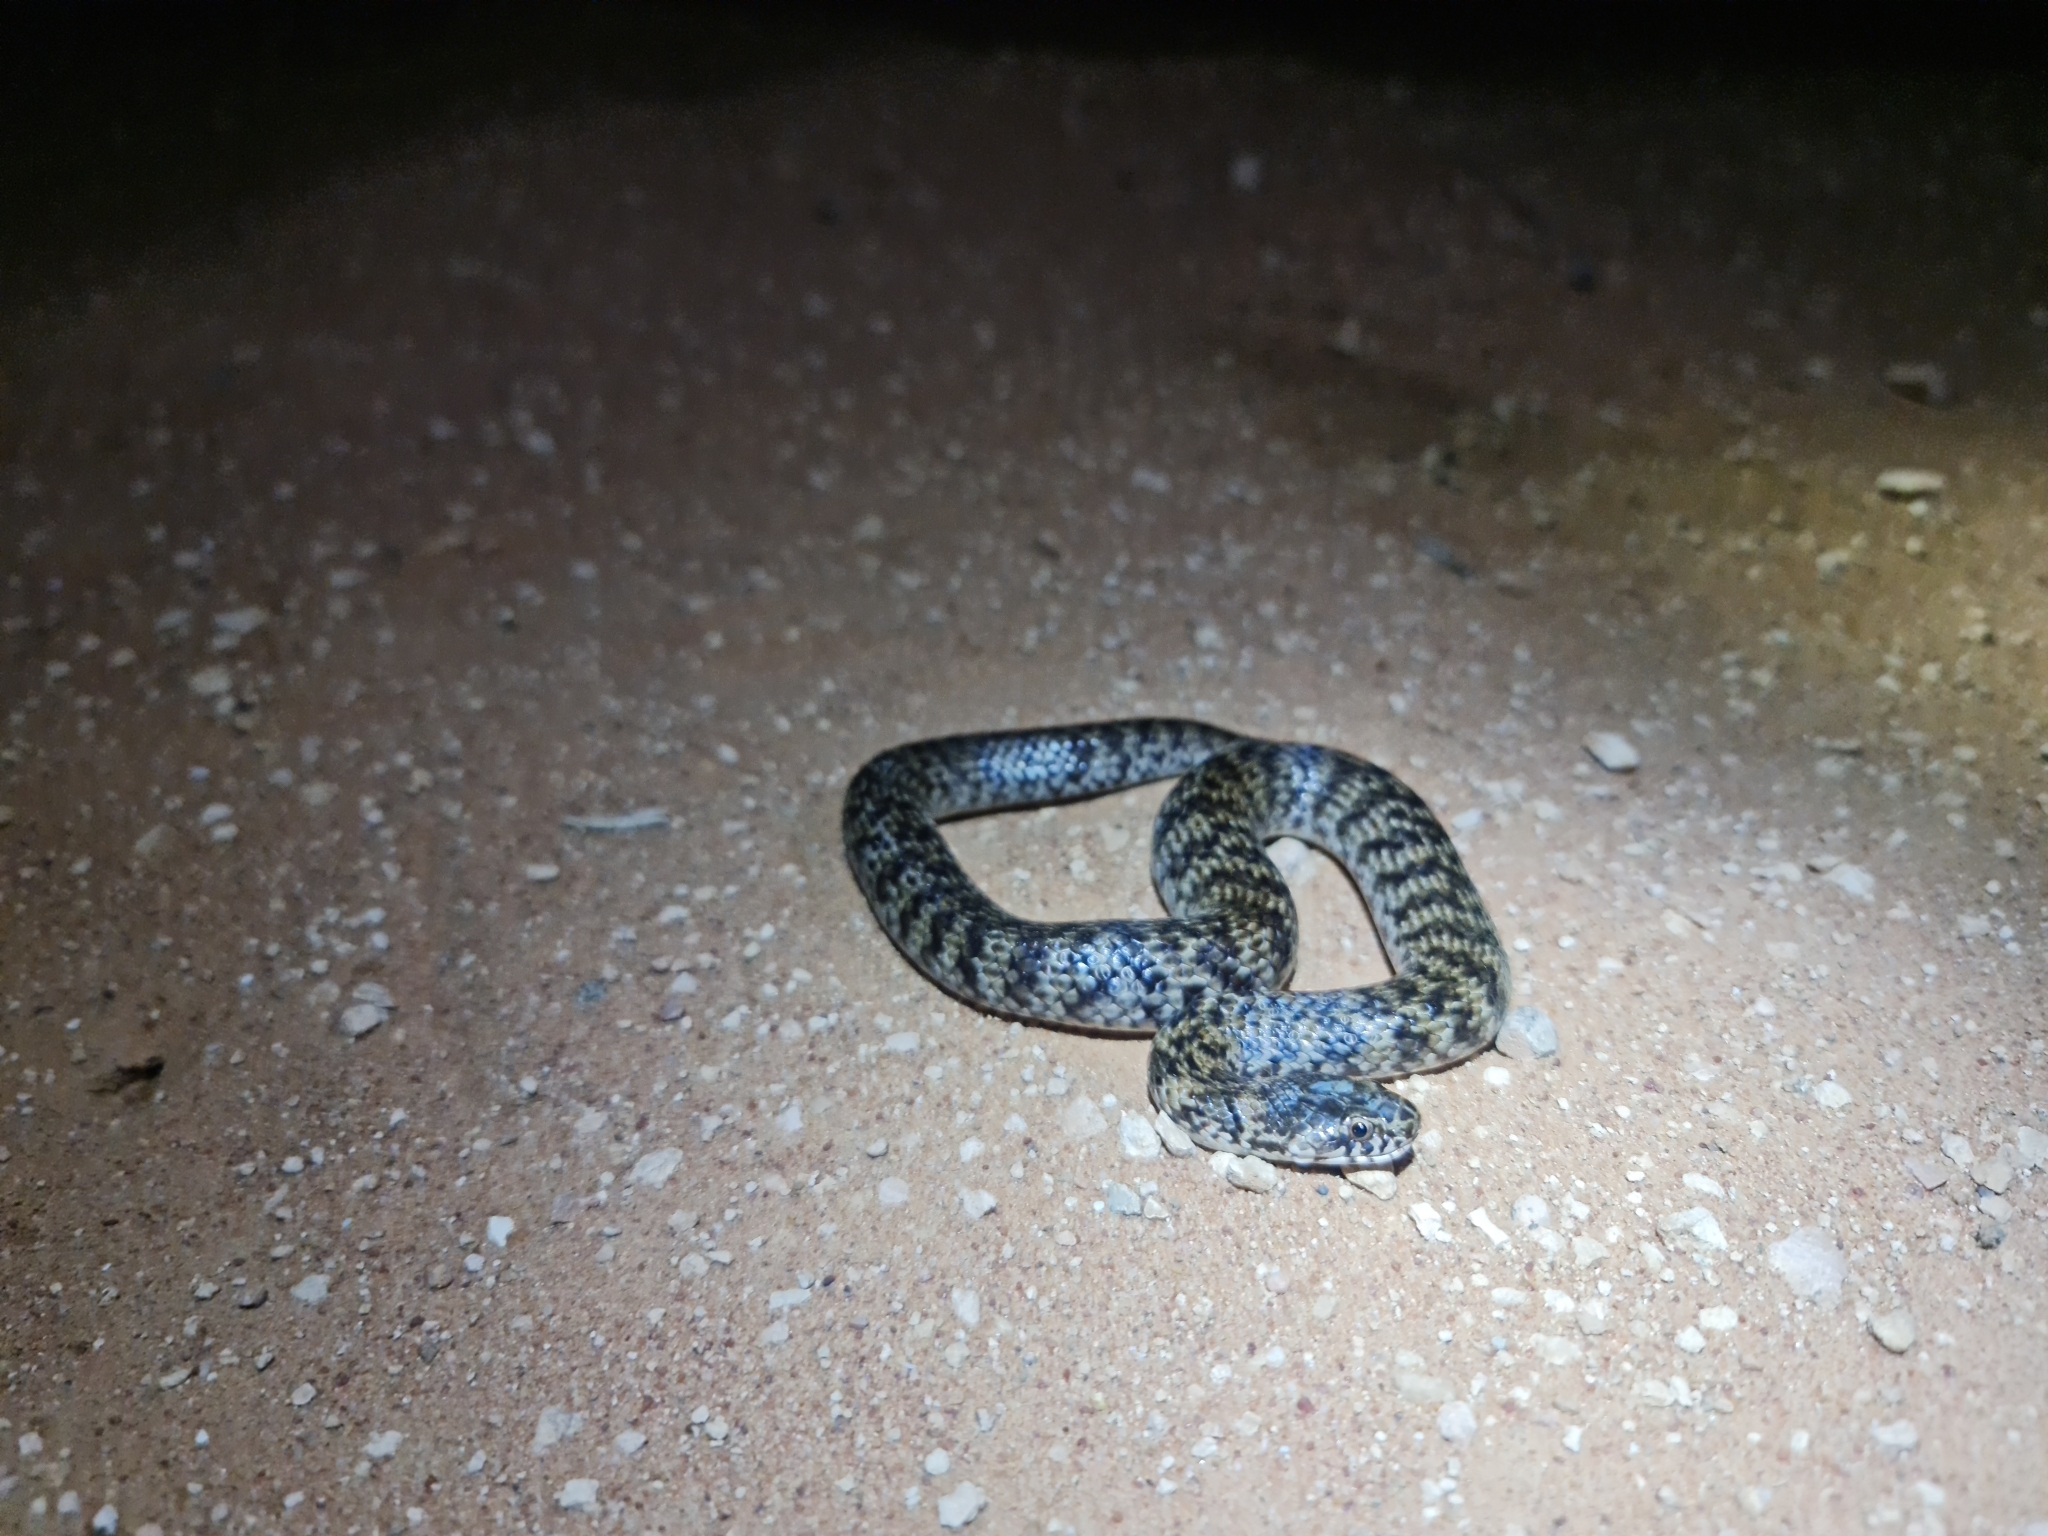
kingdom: Animalia
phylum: Chordata
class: Squamata
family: Elapidae
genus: Denisonia
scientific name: Denisonia devisi
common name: De vis banded snake
